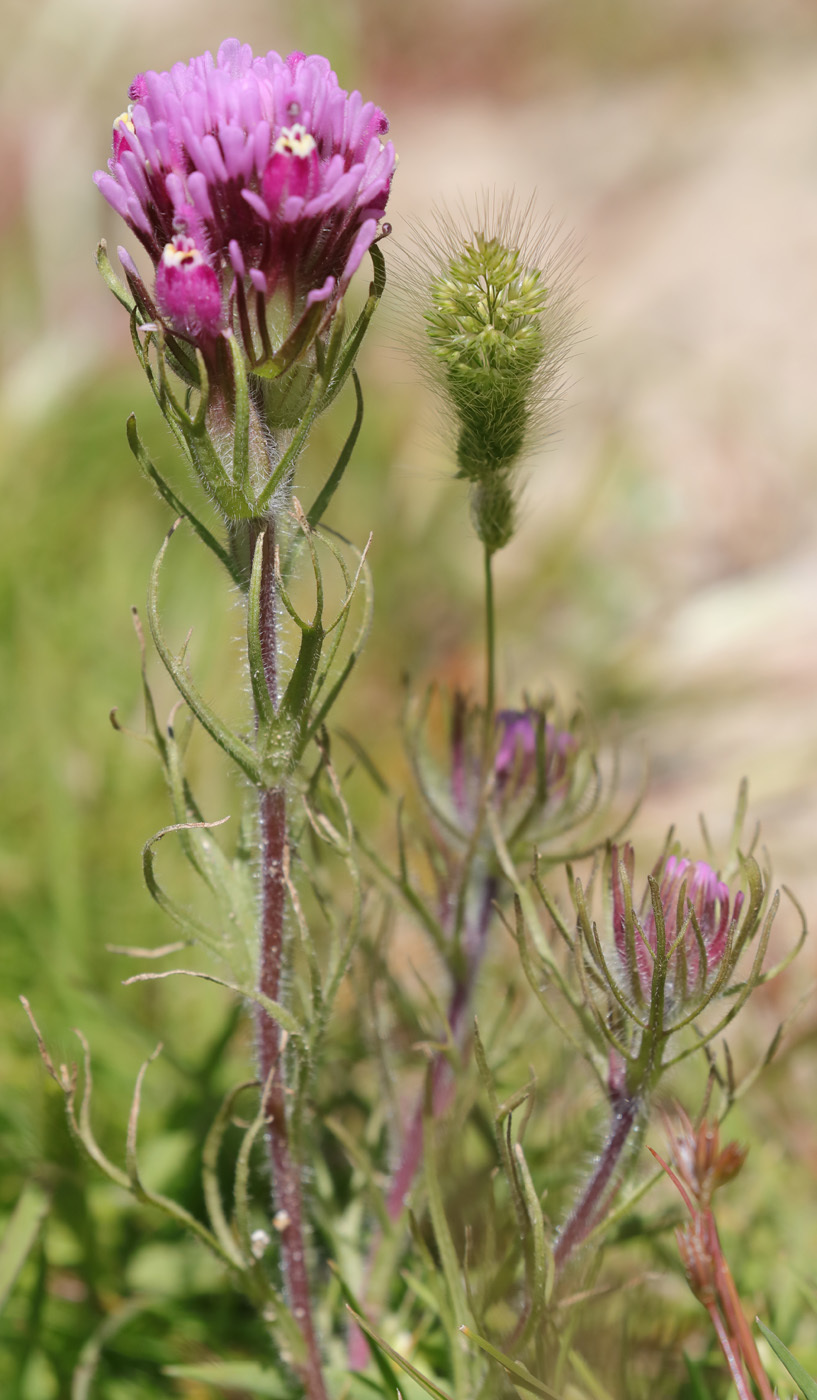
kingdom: Plantae
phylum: Tracheophyta
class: Magnoliopsida
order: Lamiales
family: Orobanchaceae
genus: Castilleja
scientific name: Castilleja exserta
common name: Purple owl-clover
